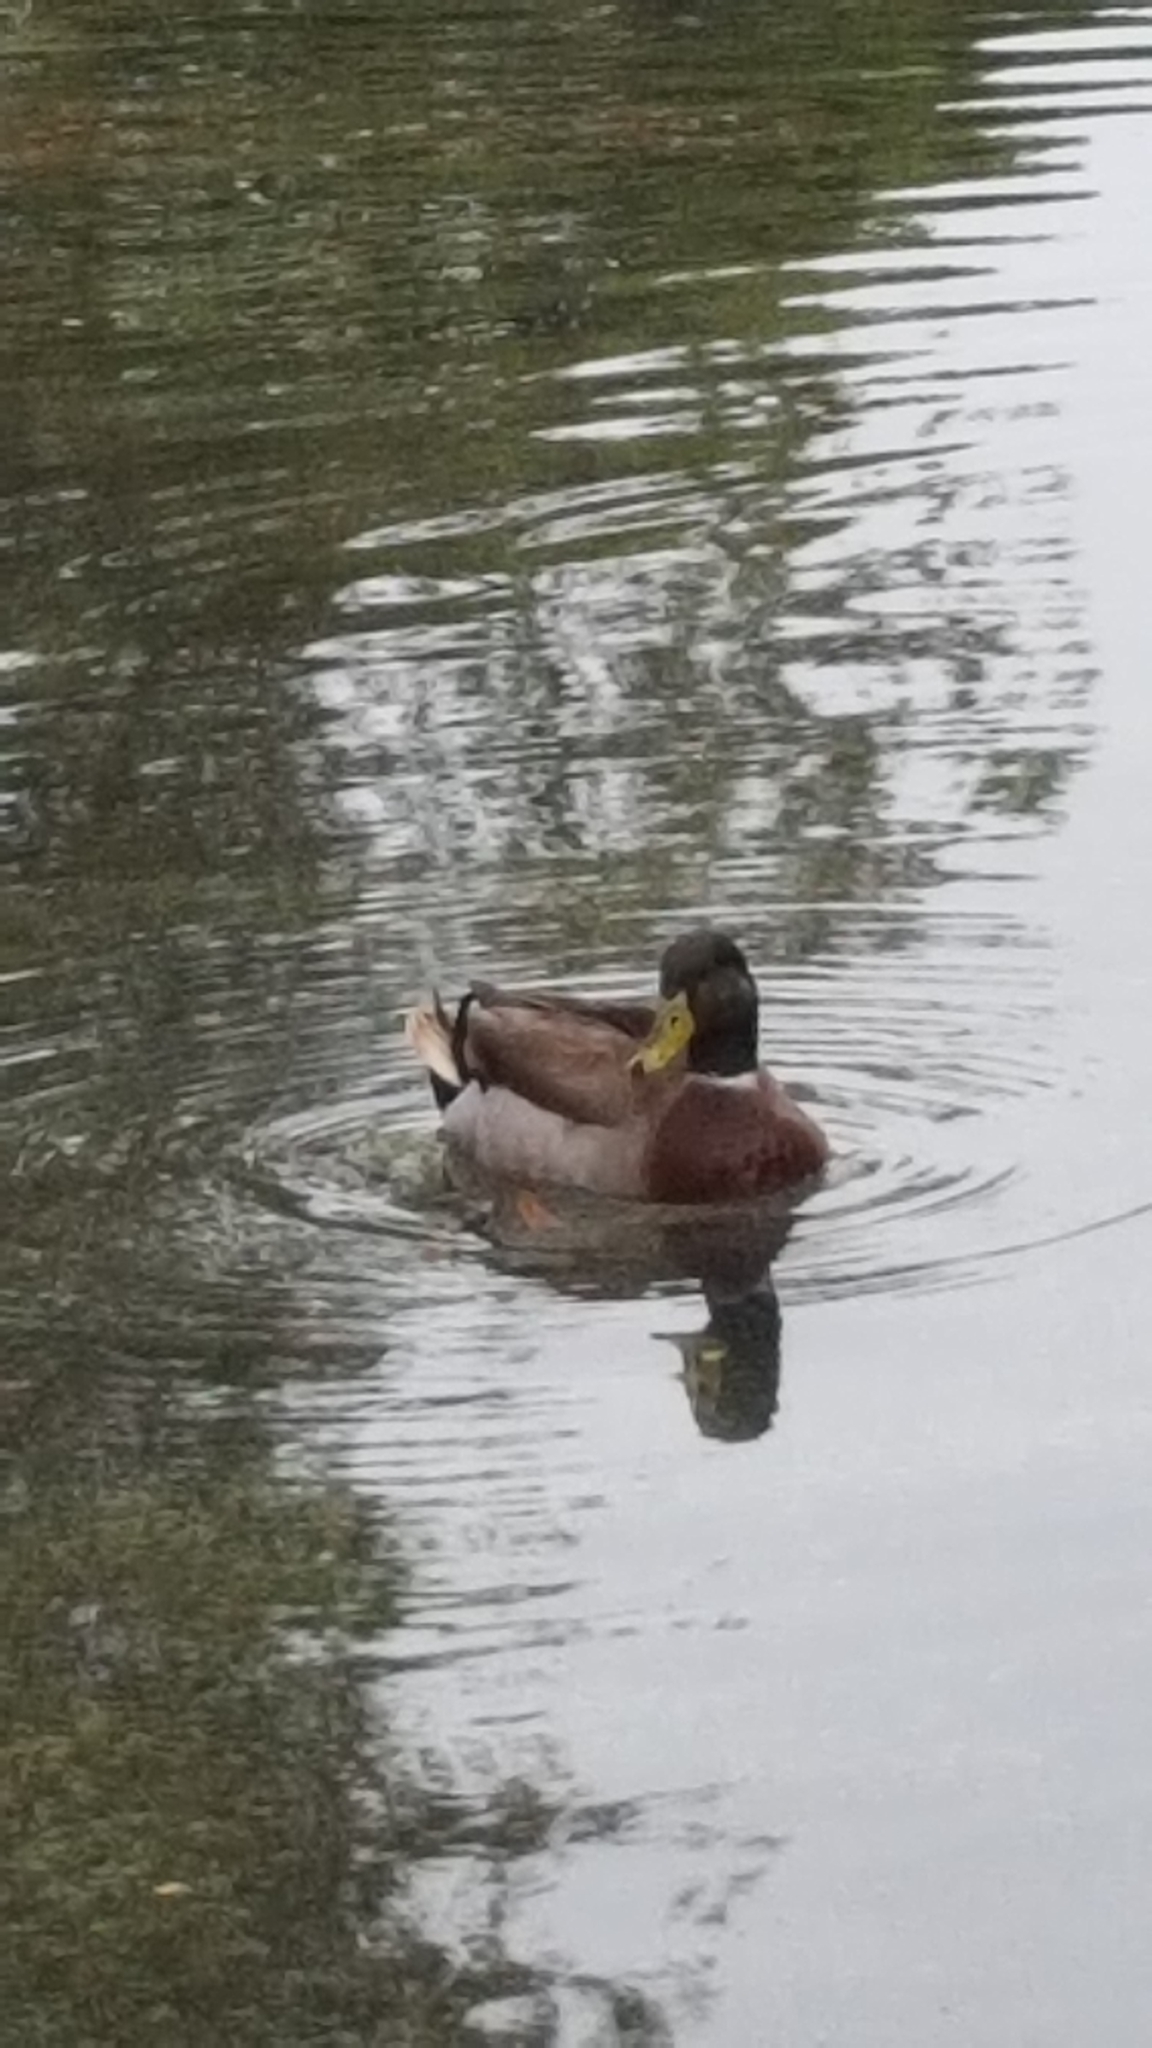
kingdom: Animalia
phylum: Chordata
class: Aves
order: Anseriformes
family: Anatidae
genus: Anas
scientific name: Anas platyrhynchos
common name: Mallard
